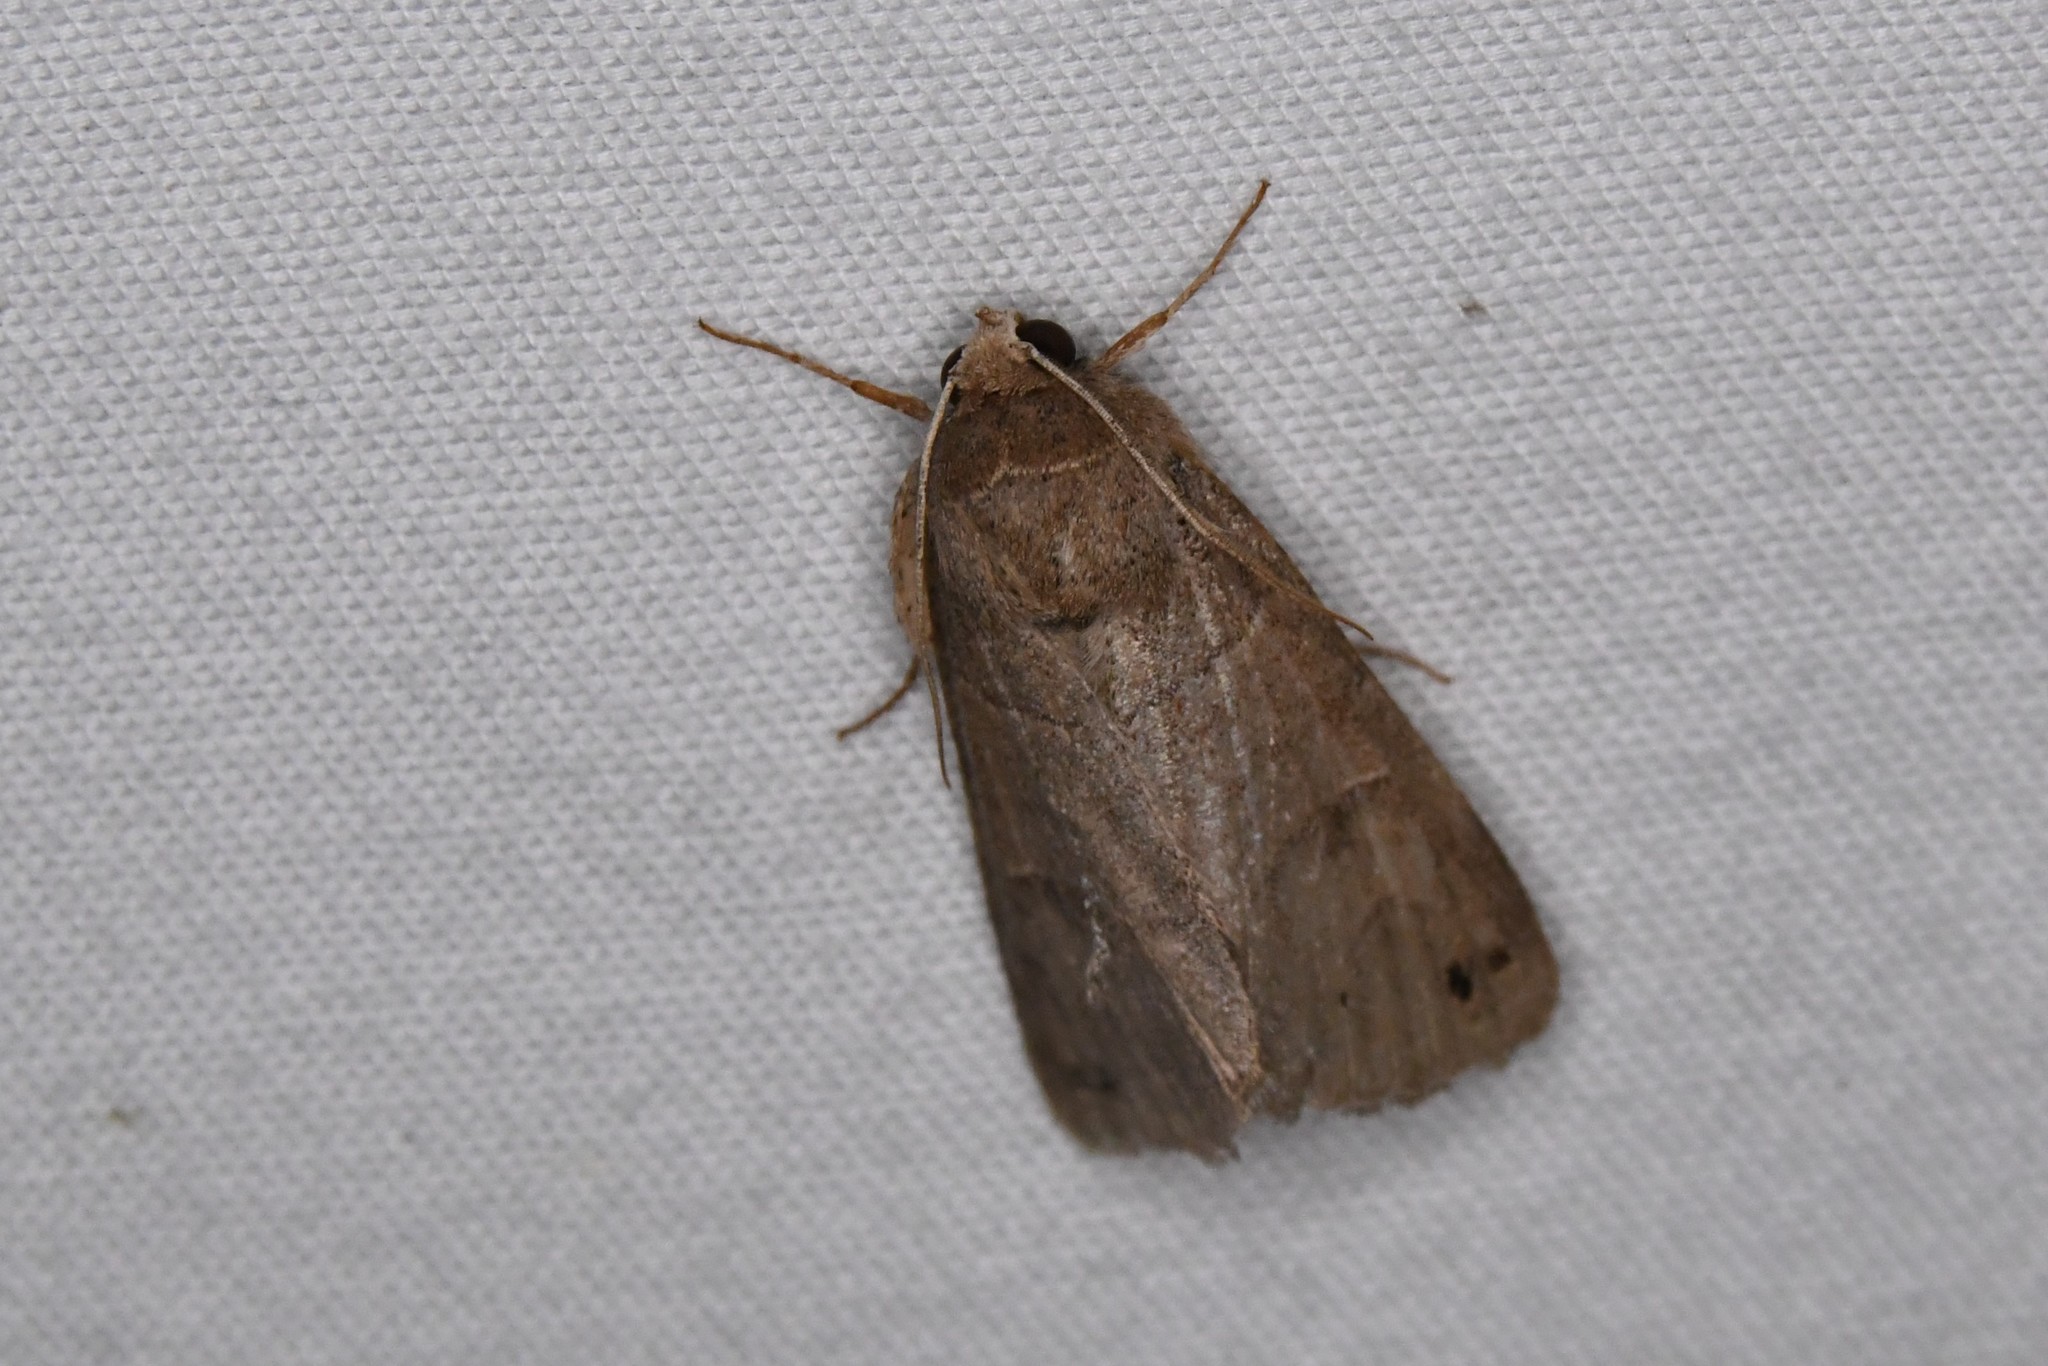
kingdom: Animalia
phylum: Arthropoda
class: Insecta
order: Lepidoptera
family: Erebidae
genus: Cissusa
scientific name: Cissusa spadix
